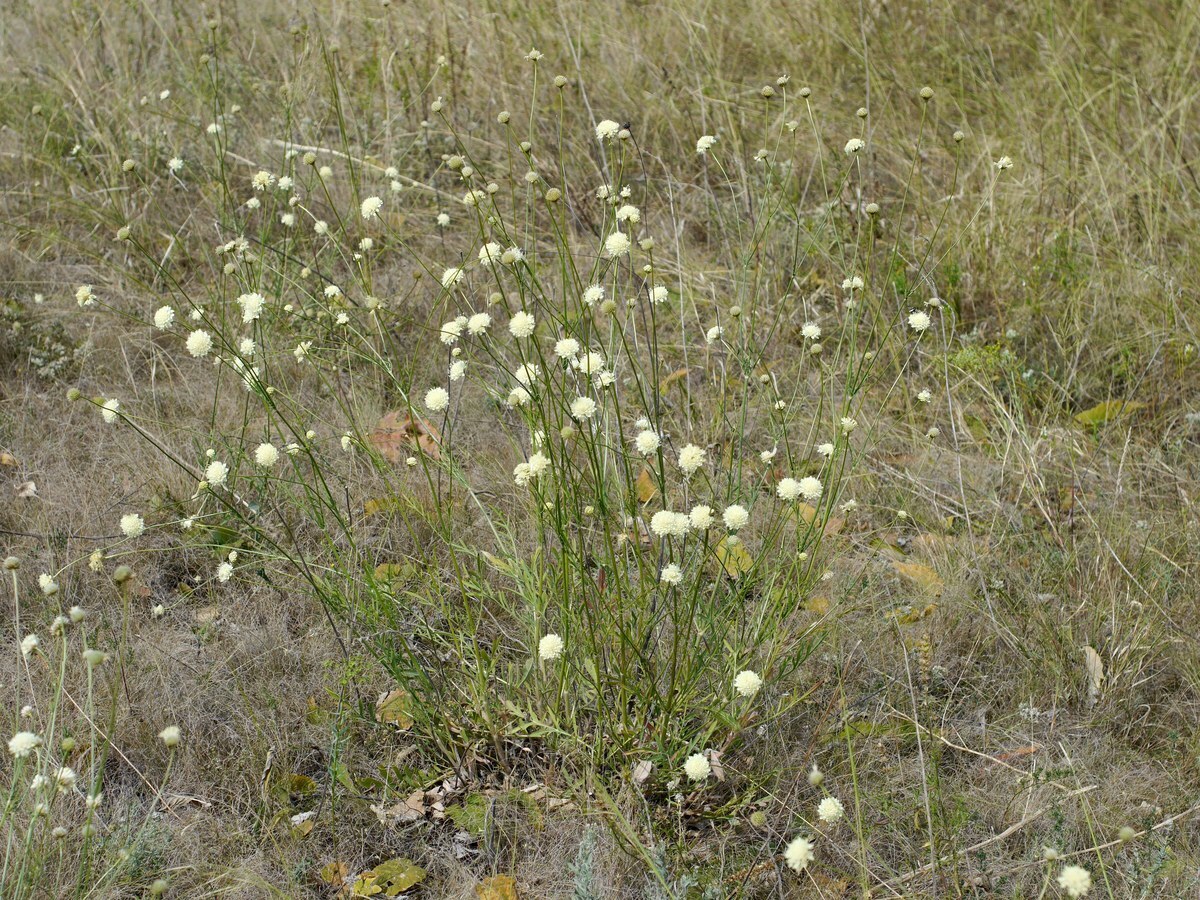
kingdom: Plantae
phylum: Tracheophyta
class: Magnoliopsida
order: Dipsacales
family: Caprifoliaceae
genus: Cephalaria
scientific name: Cephalaria uralensis
